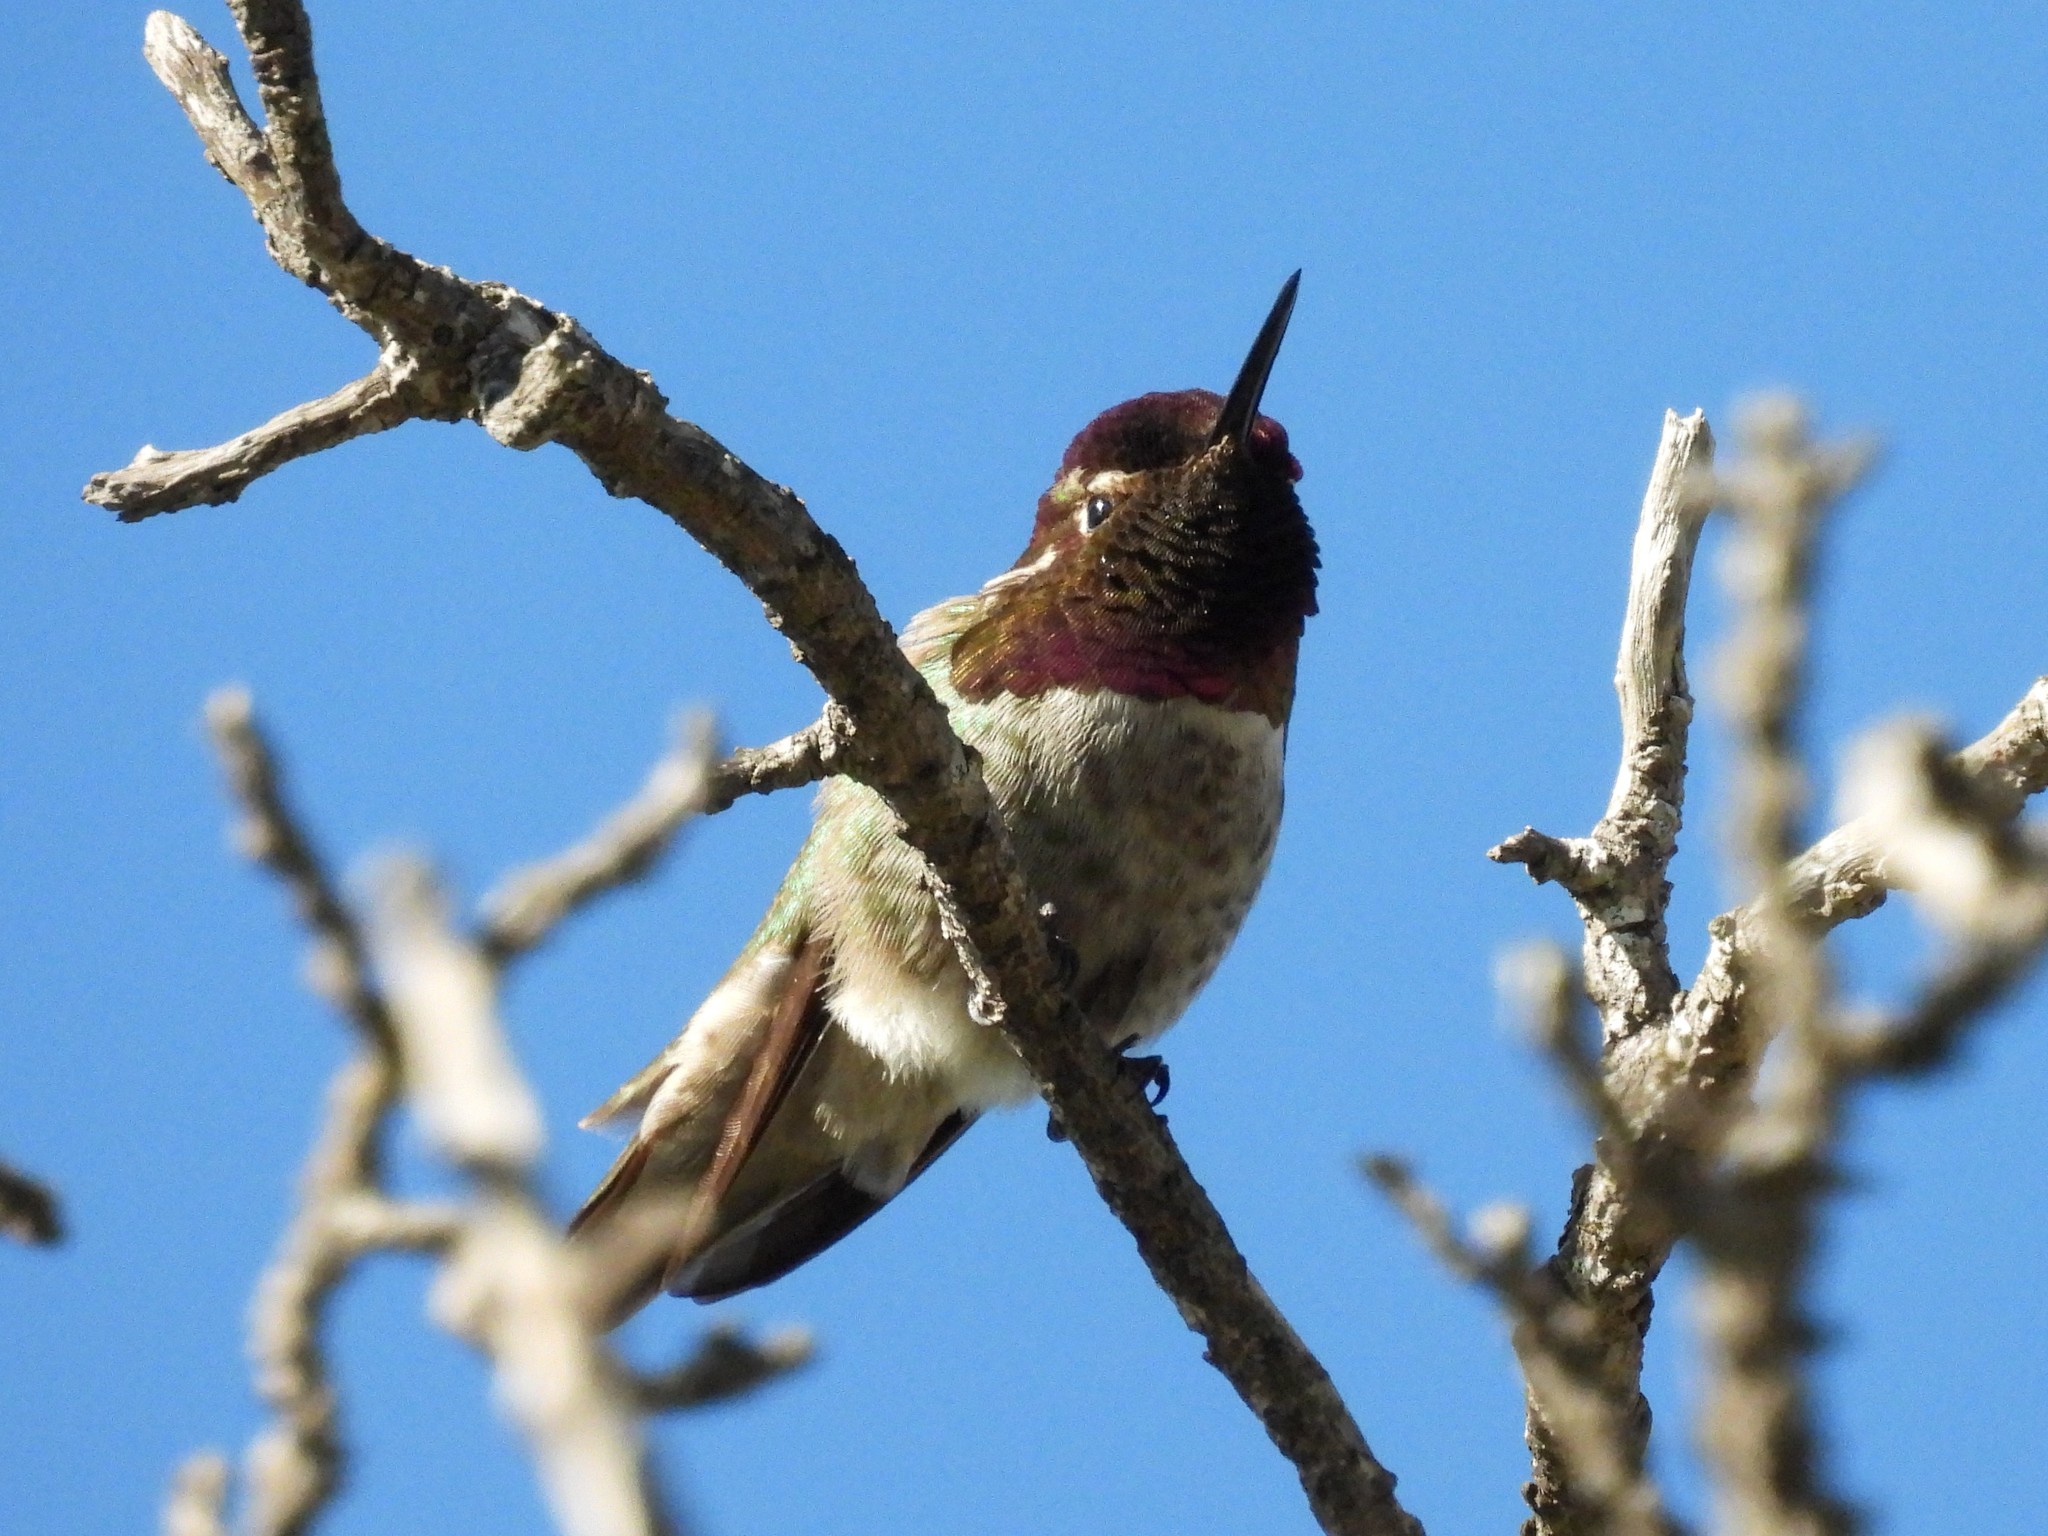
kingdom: Animalia
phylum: Chordata
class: Aves
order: Apodiformes
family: Trochilidae
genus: Calypte
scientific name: Calypte anna
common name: Anna's hummingbird
